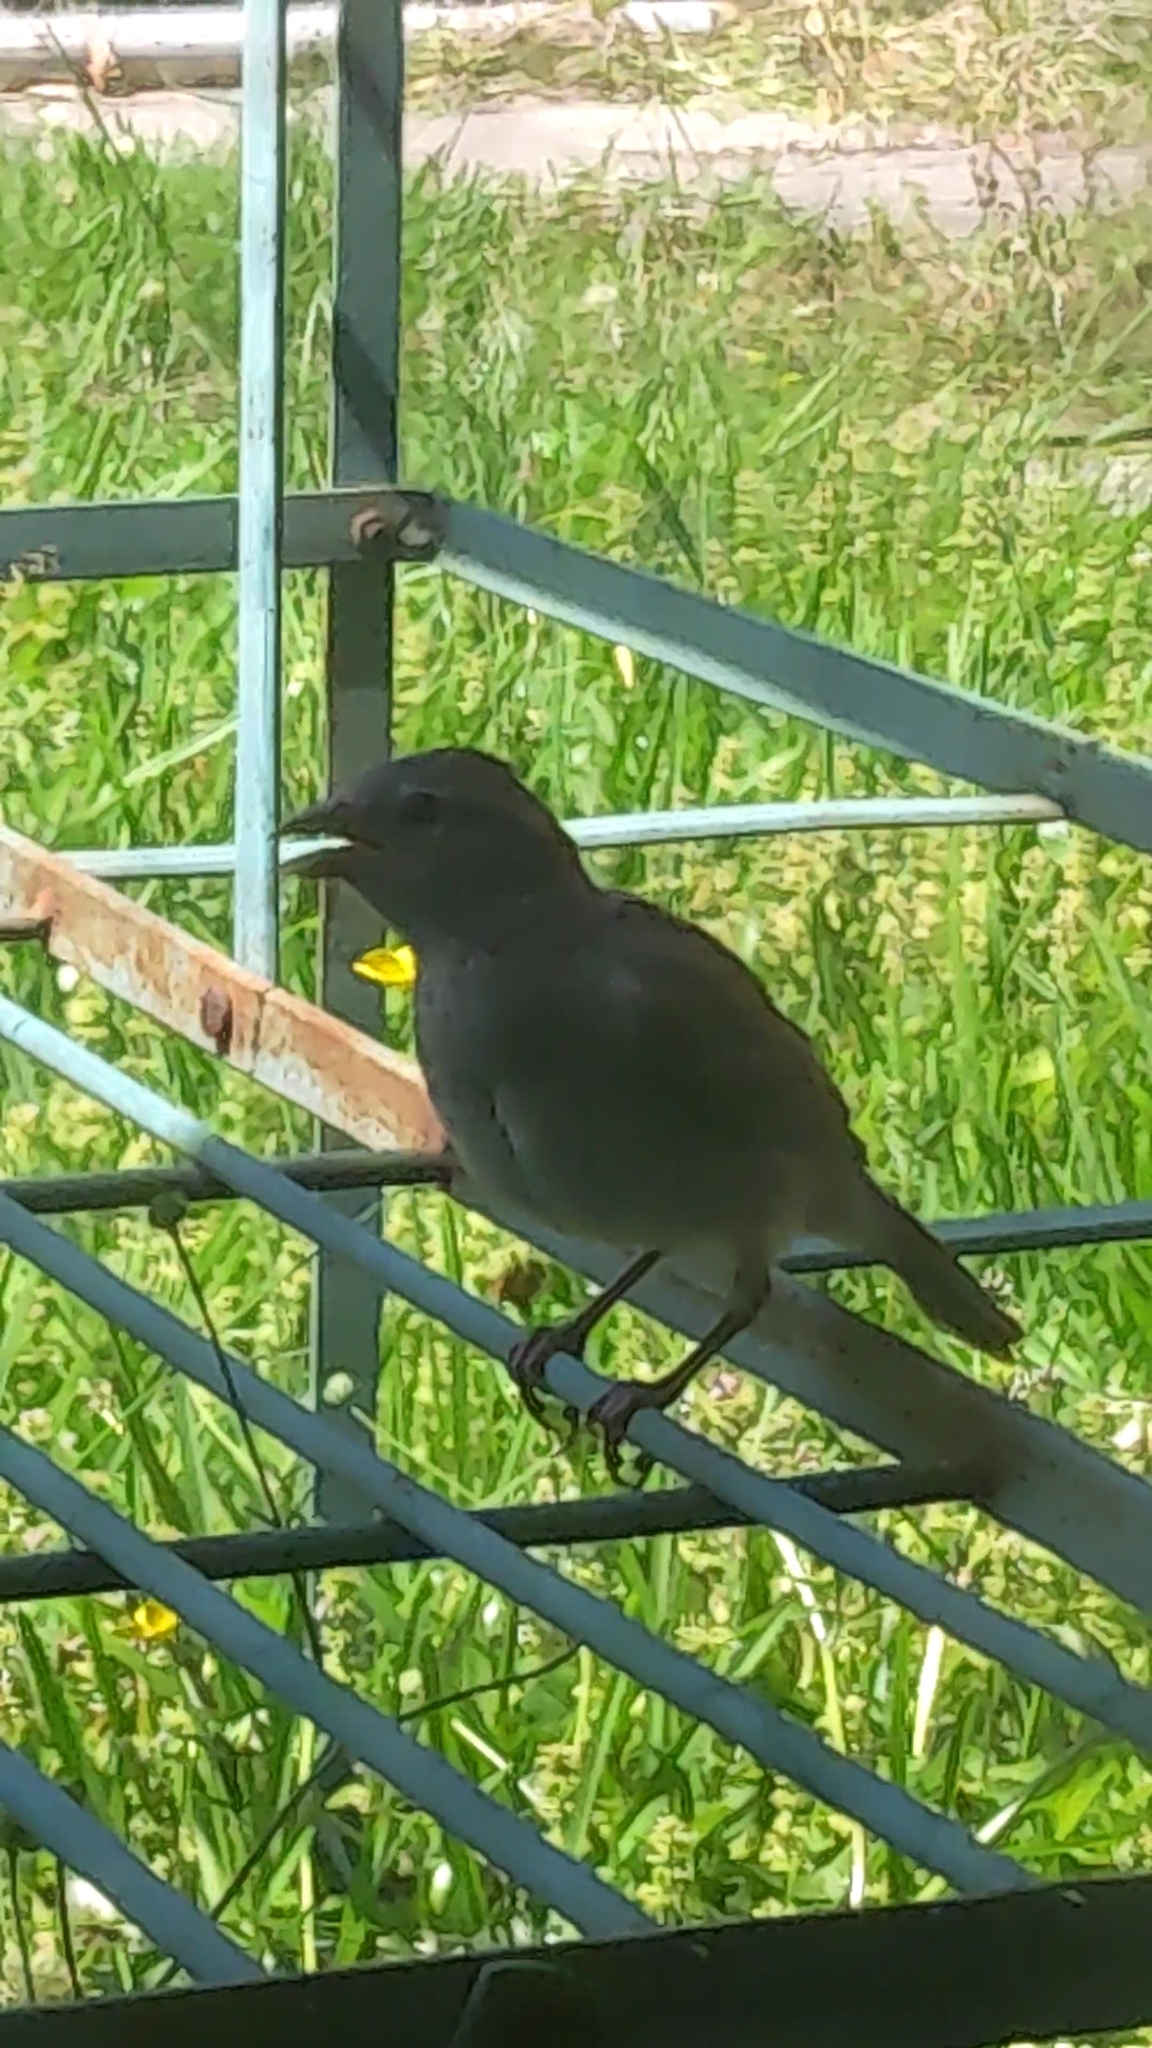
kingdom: Animalia
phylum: Chordata
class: Aves
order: Passeriformes
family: Passeridae
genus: Passer
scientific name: Passer domesticus
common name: House sparrow
